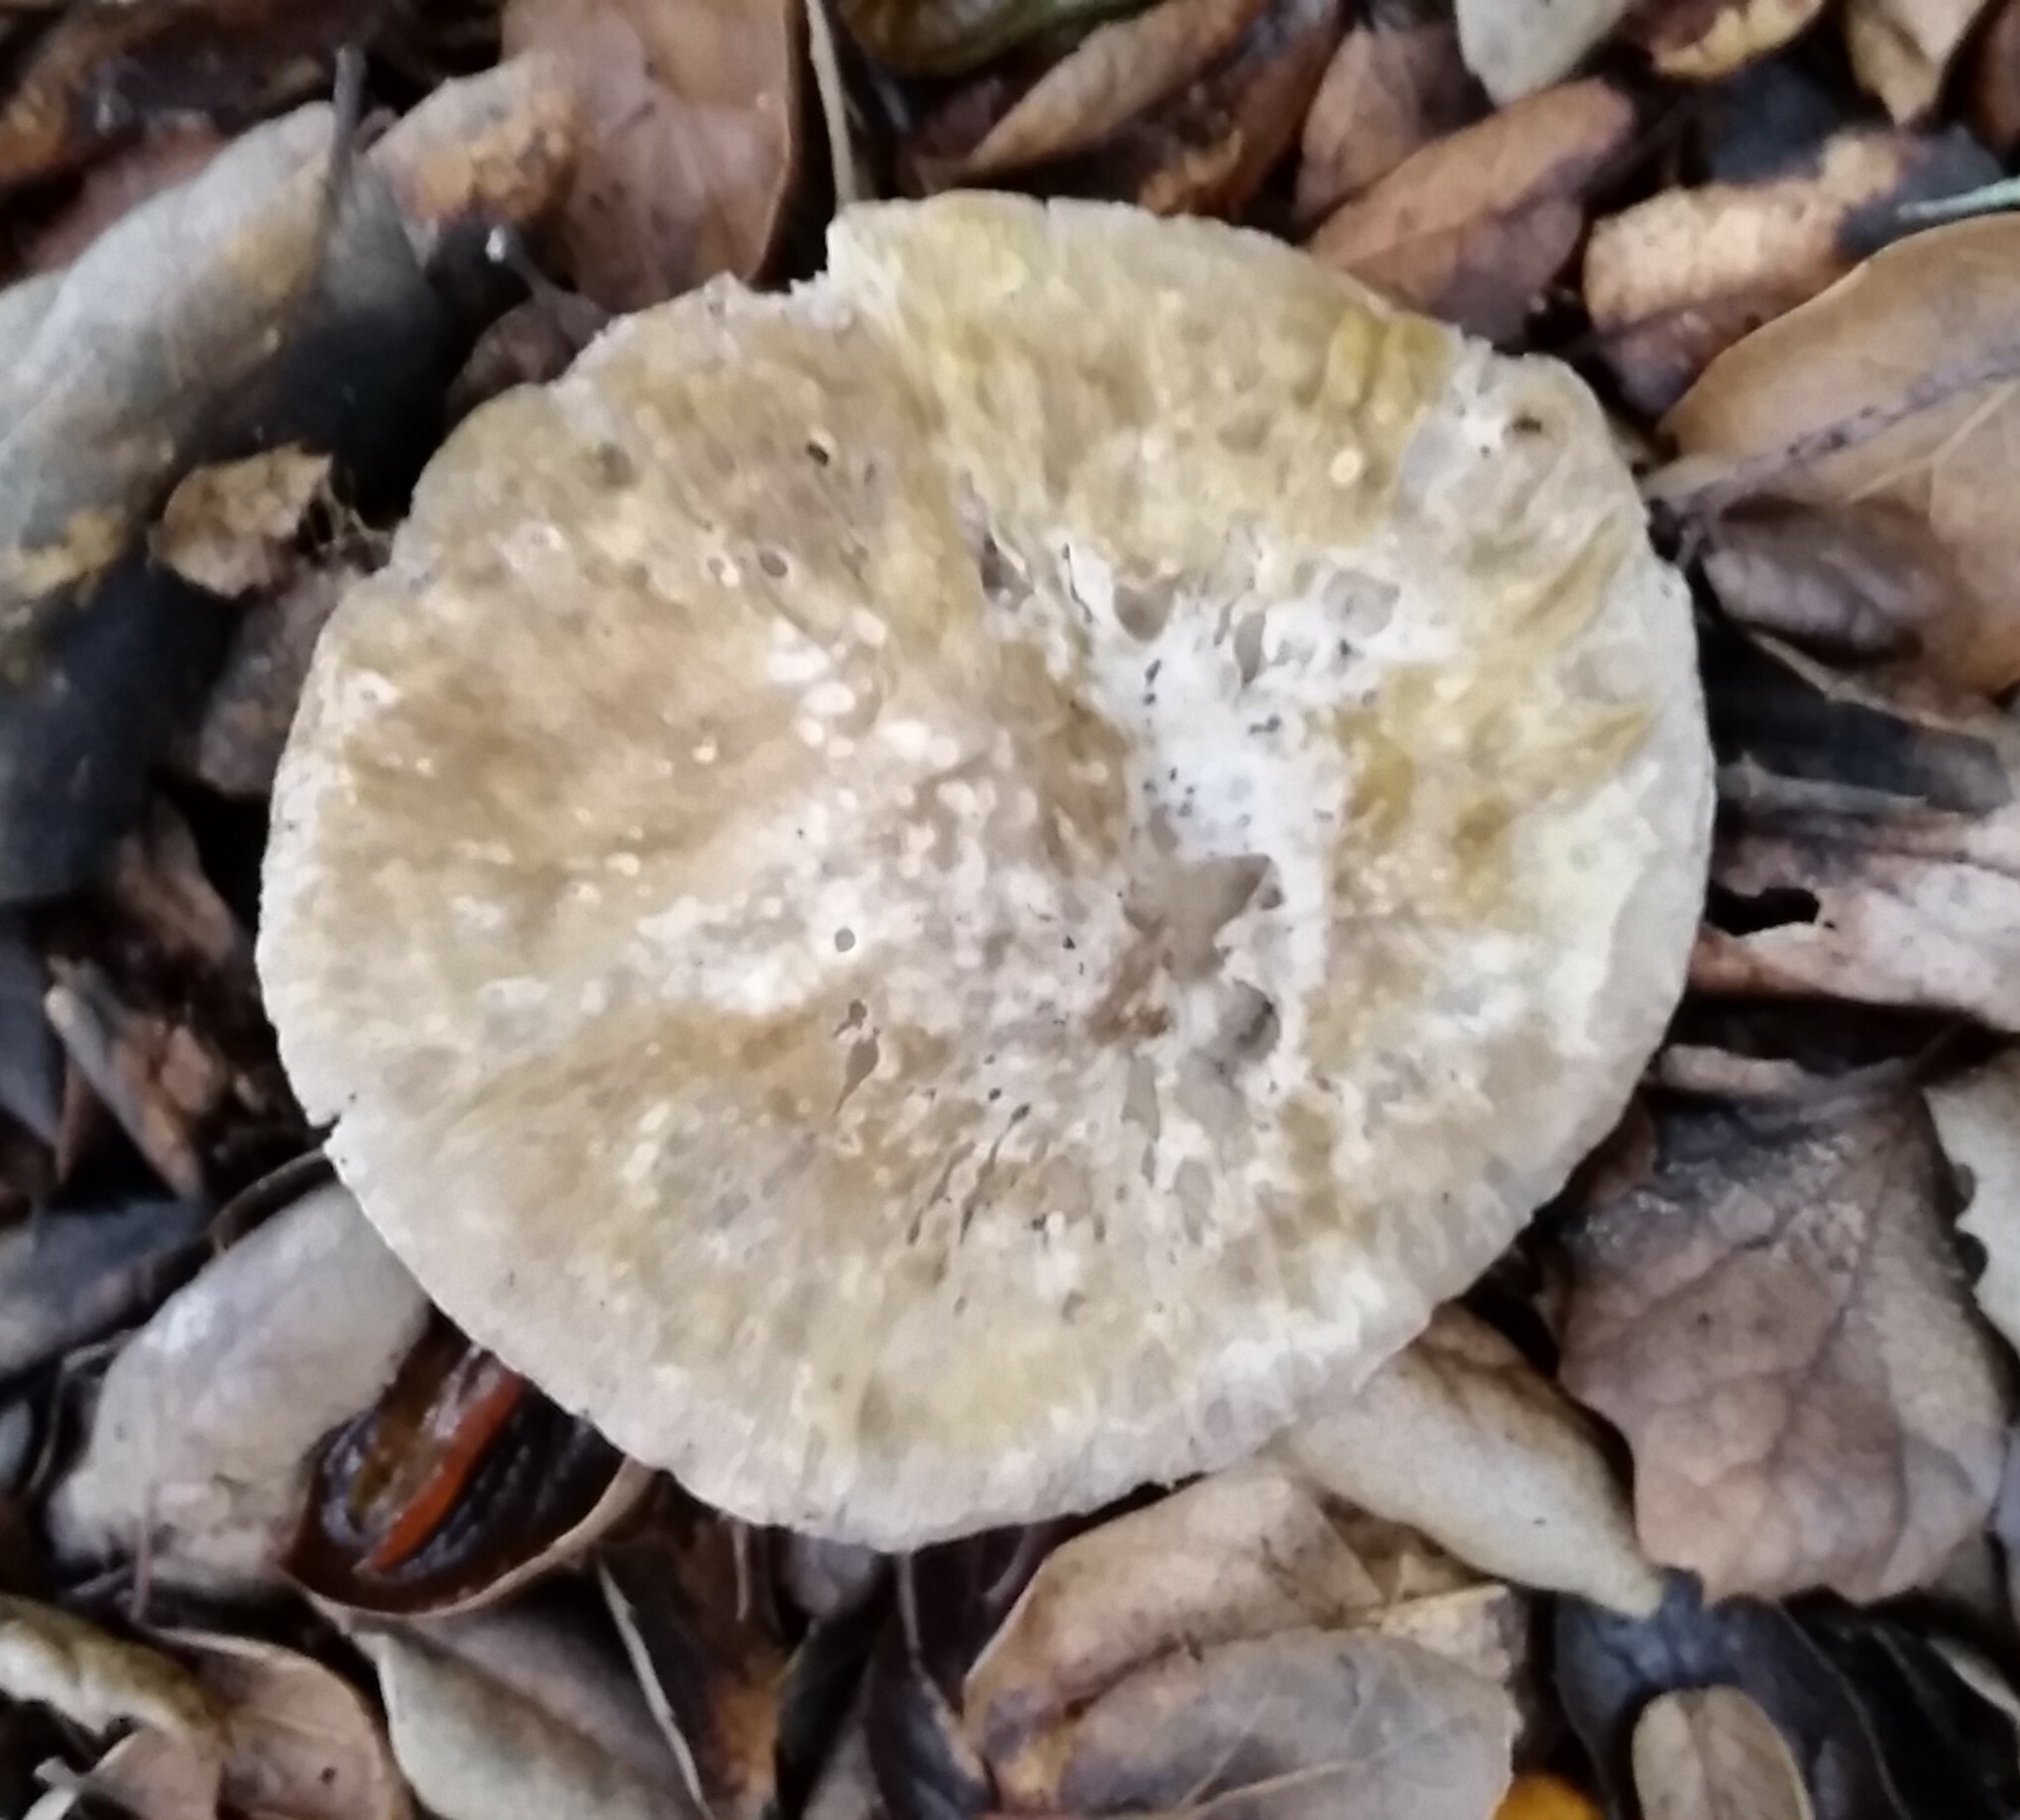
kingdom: Fungi
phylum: Basidiomycota
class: Agaricomycetes
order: Agaricales
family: Amanitaceae
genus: Amanita
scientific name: Amanita phalloides
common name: Death cap
